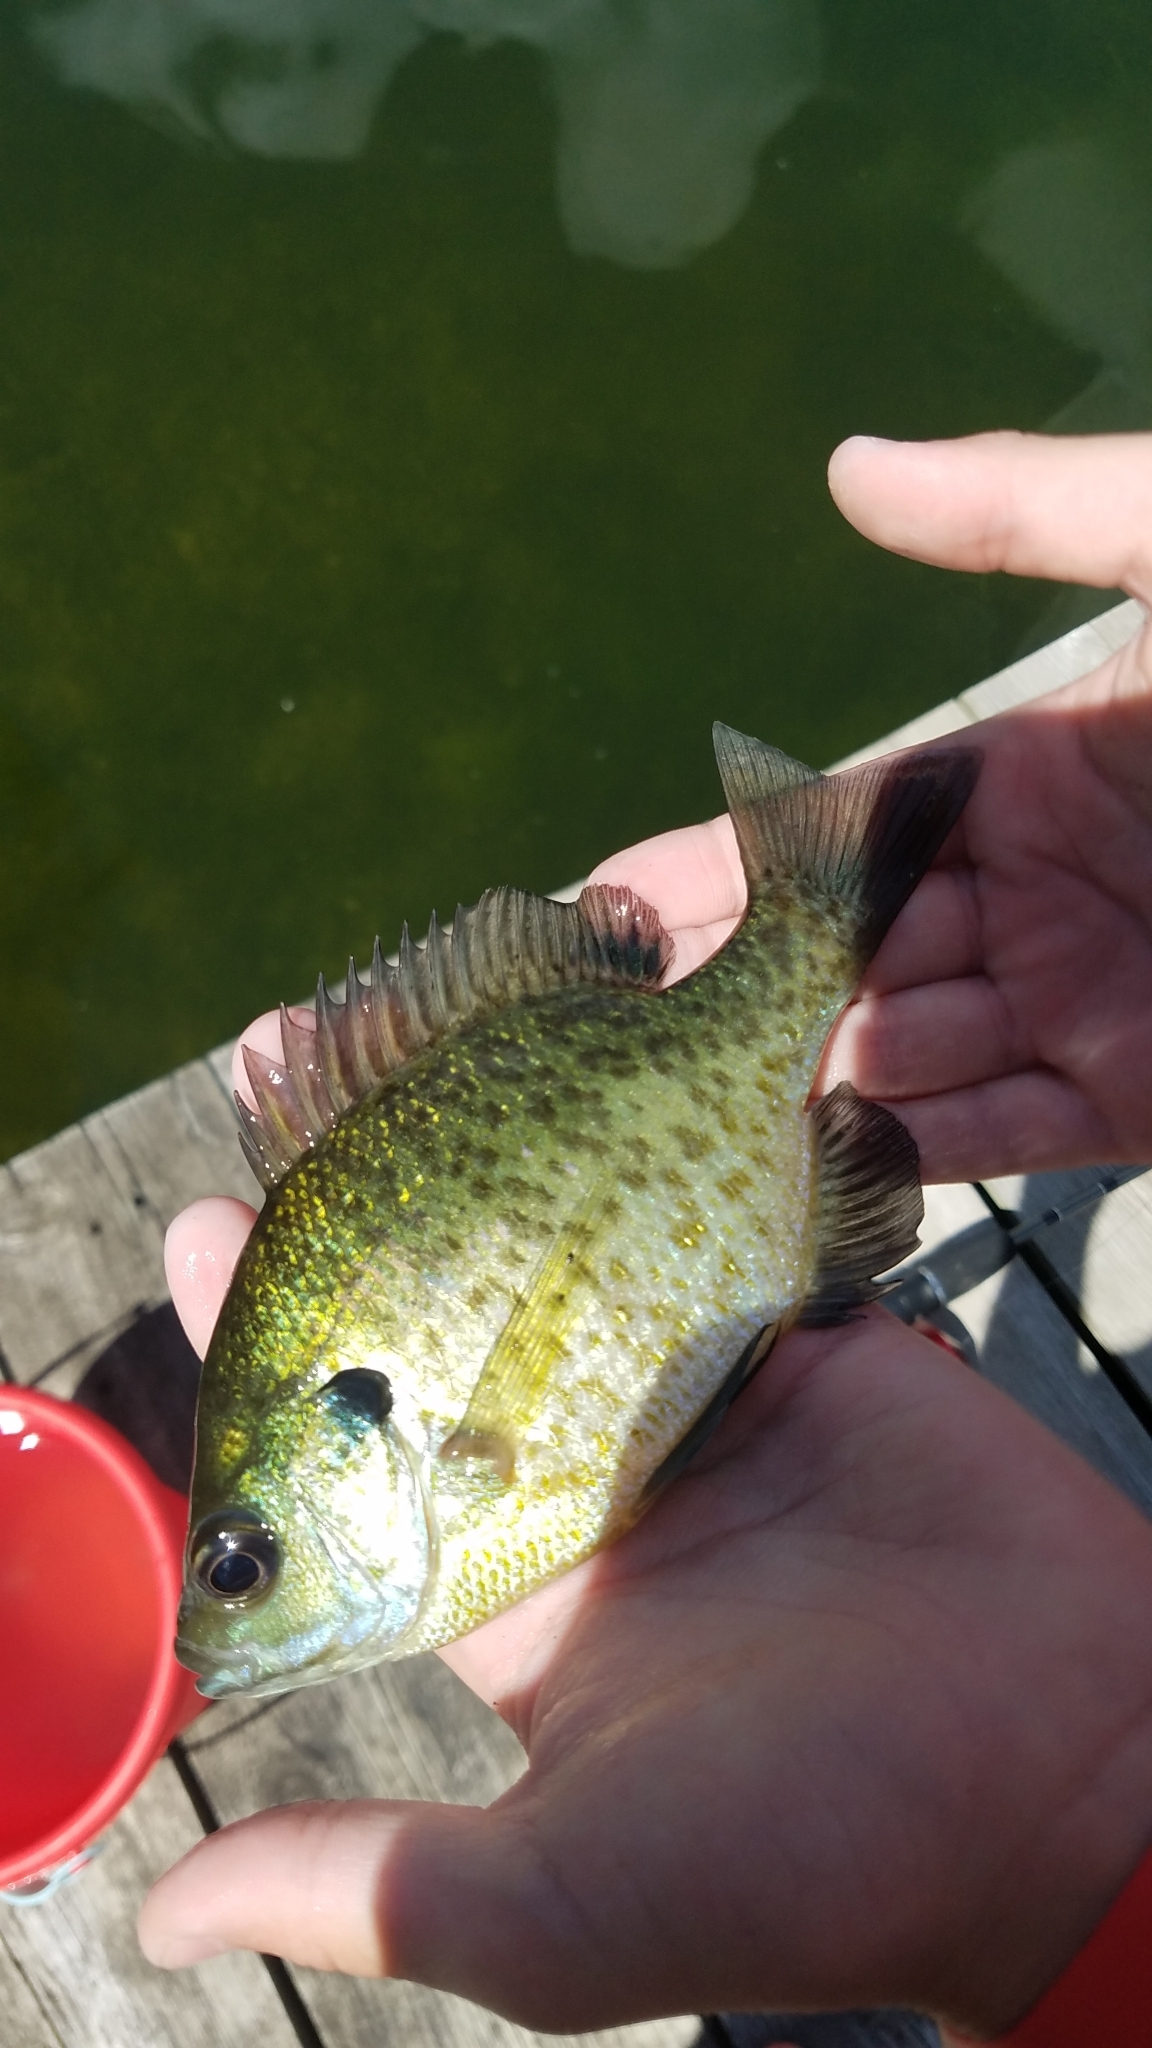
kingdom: Animalia
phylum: Chordata
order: Perciformes
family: Centrarchidae
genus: Lepomis
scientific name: Lepomis macrochirus
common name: Bluegill
